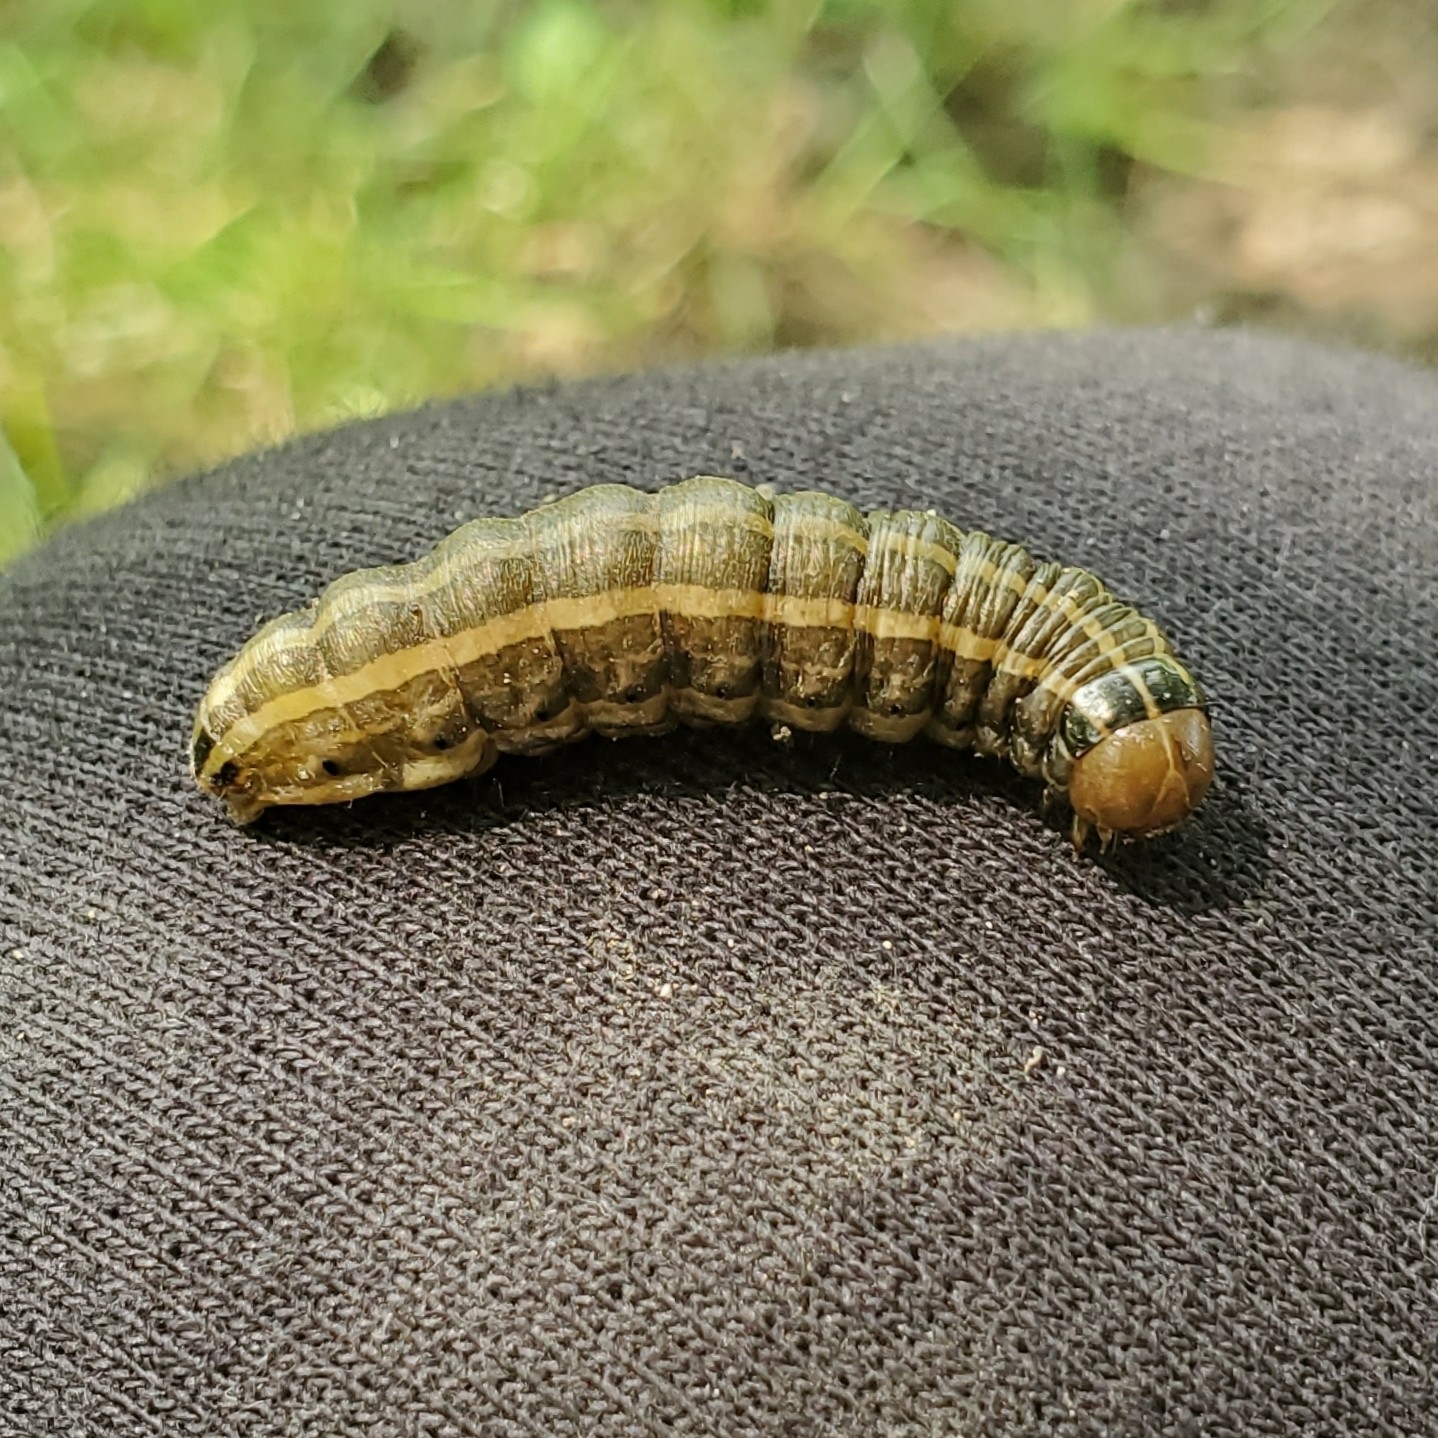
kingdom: Animalia
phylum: Arthropoda
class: Insecta
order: Lepidoptera
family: Noctuidae
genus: Nephelodes
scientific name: Nephelodes minians
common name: Bronzed cutworm
